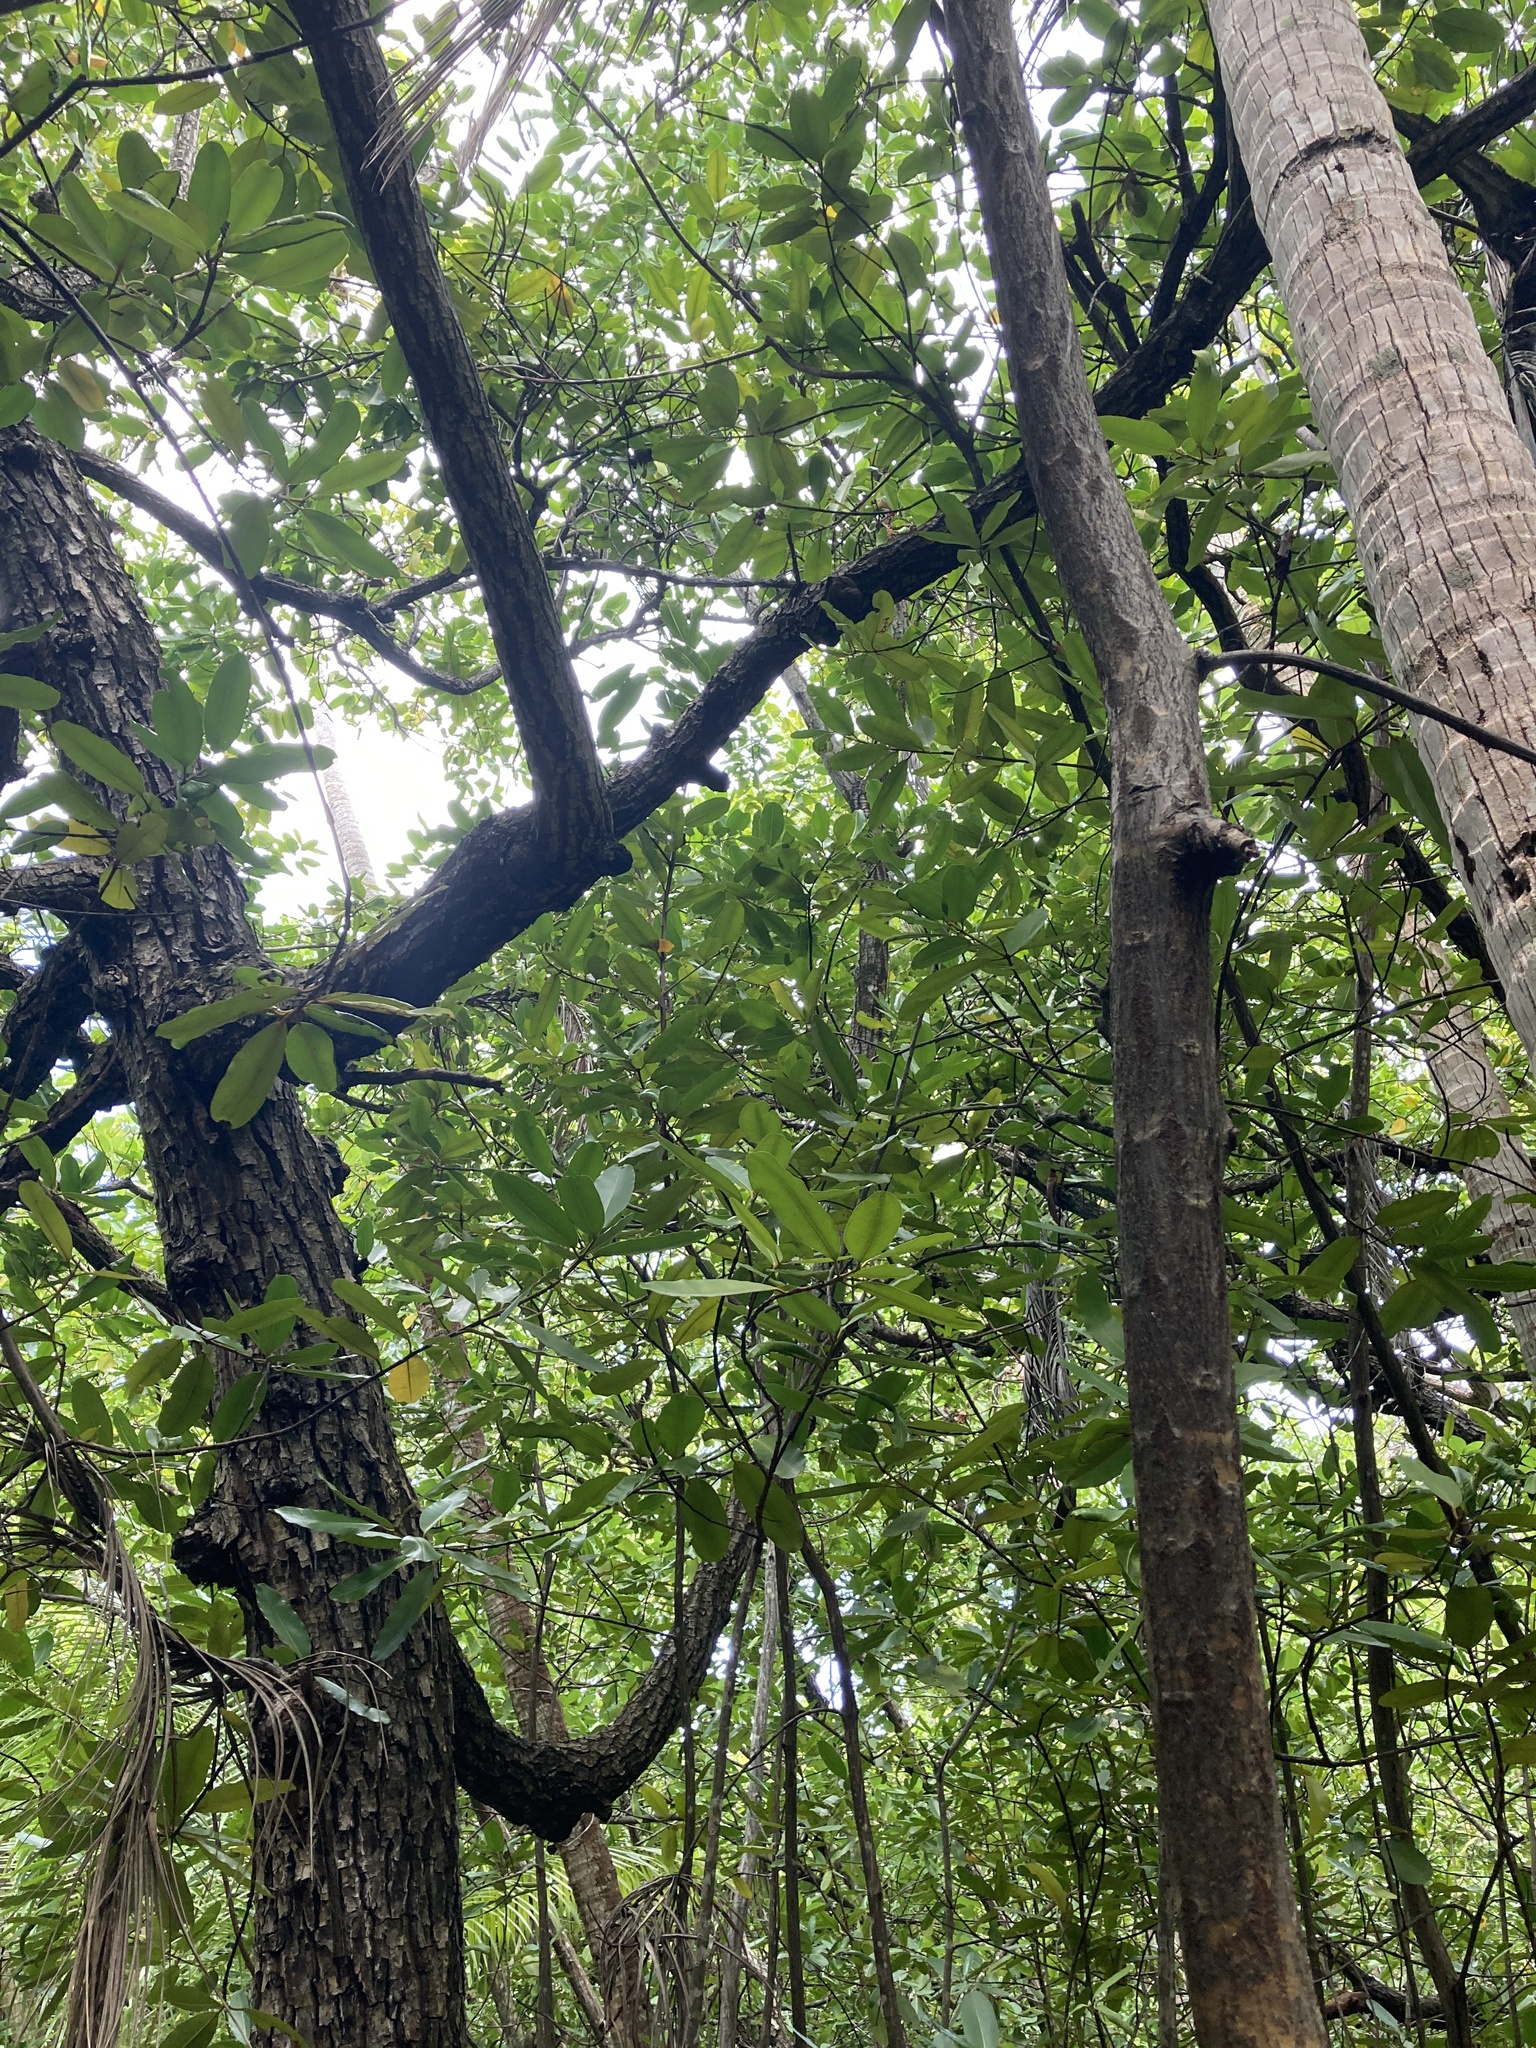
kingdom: Plantae
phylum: Tracheophyta
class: Magnoliopsida
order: Malpighiales
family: Calophyllaceae
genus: Calophyllum
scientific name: Calophyllum inophyllum
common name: Alexandrian laurel
